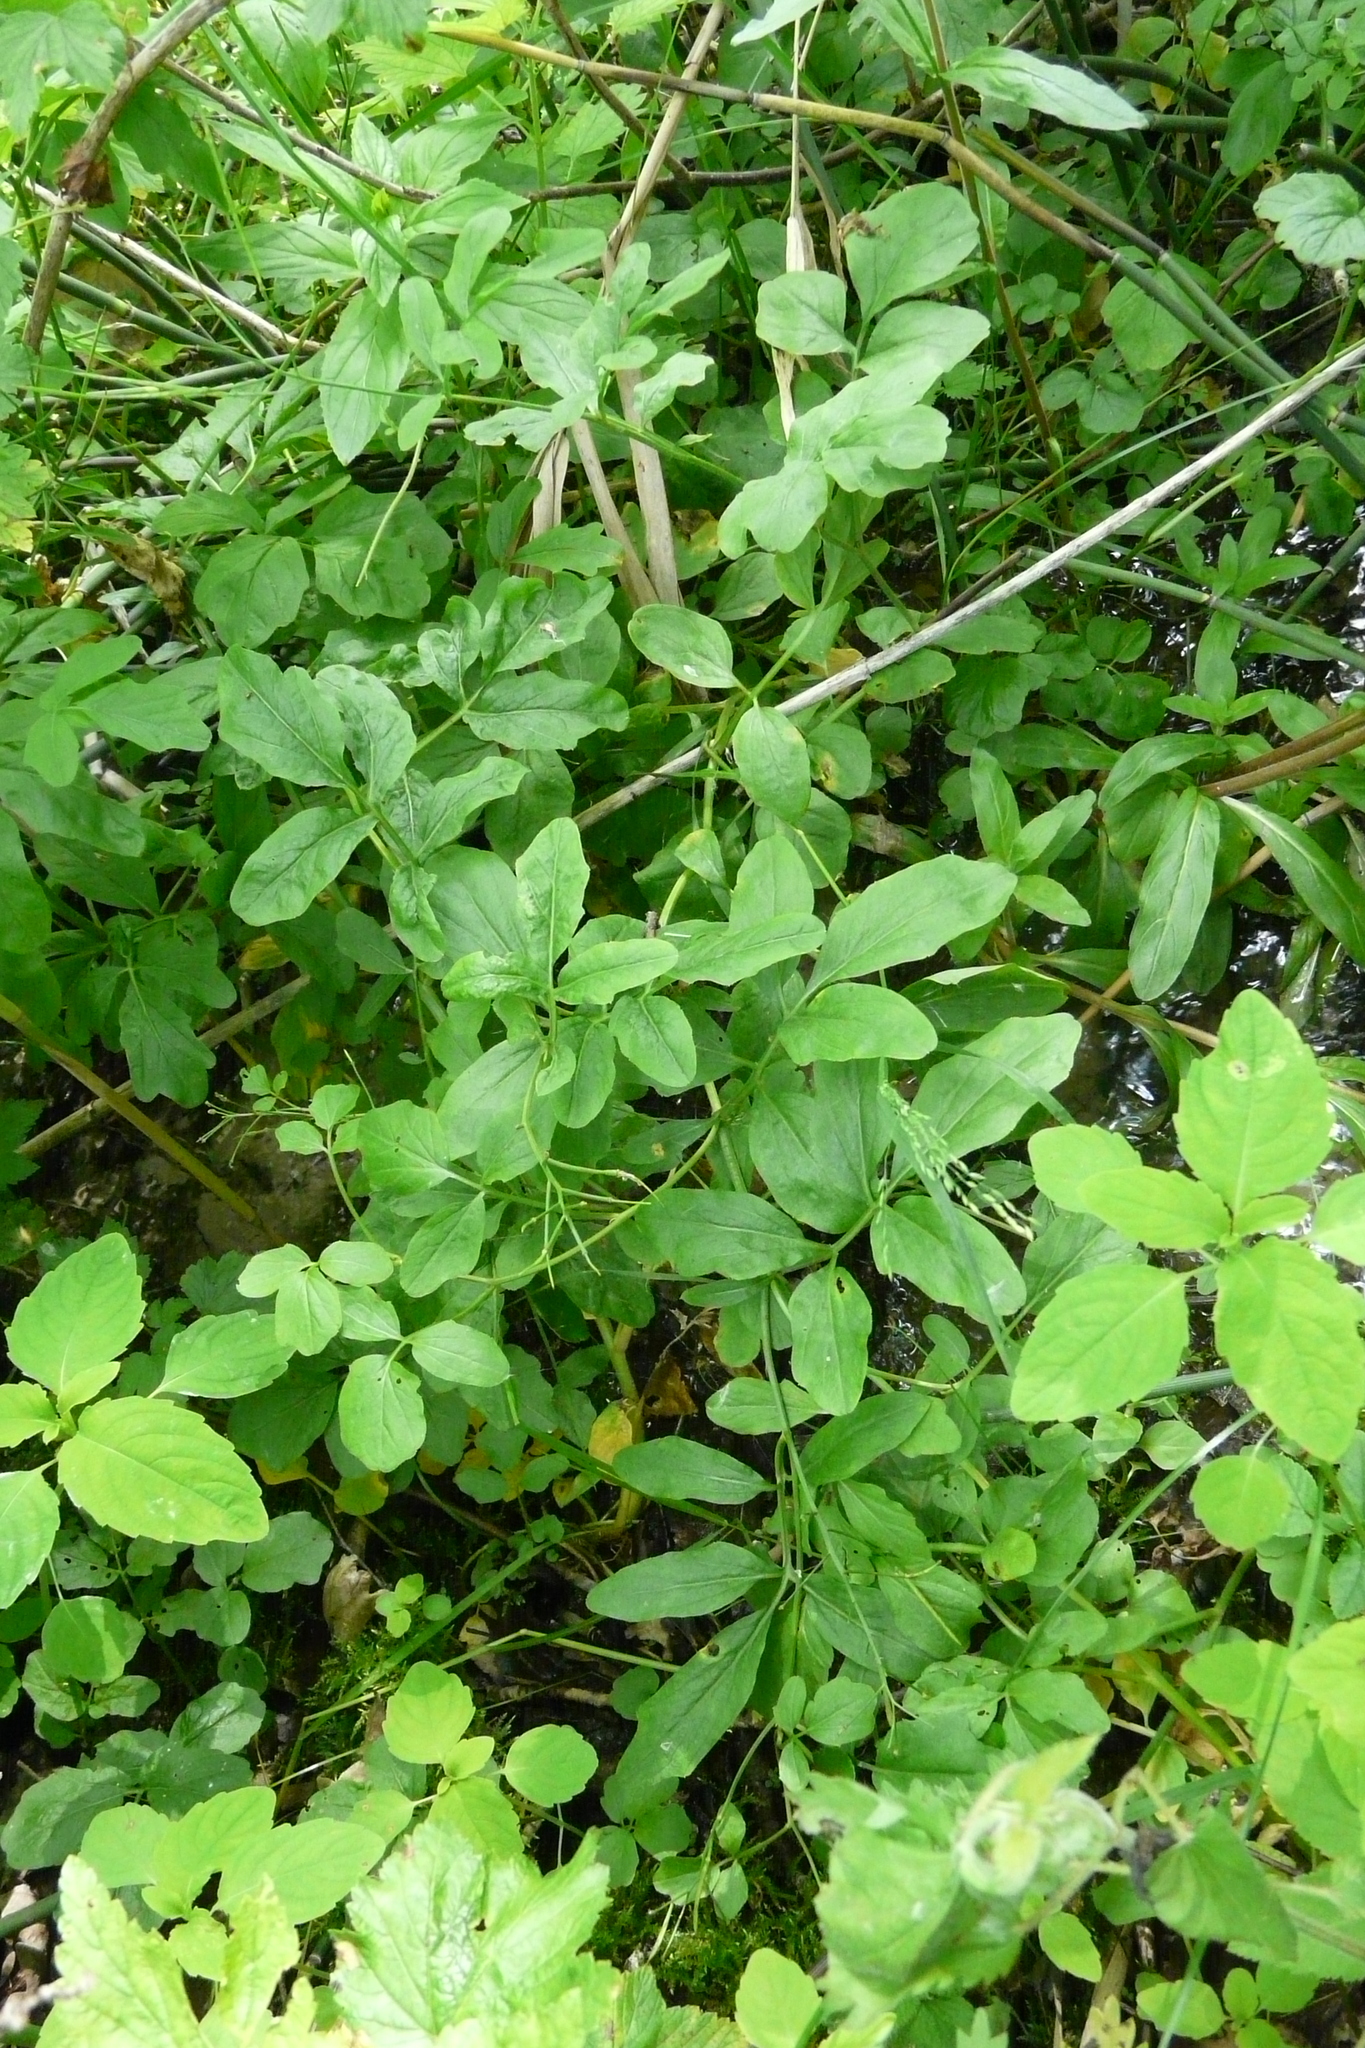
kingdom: Plantae
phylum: Tracheophyta
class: Magnoliopsida
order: Brassicales
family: Brassicaceae
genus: Cardamine
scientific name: Cardamine amara
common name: Large bitter-cress
